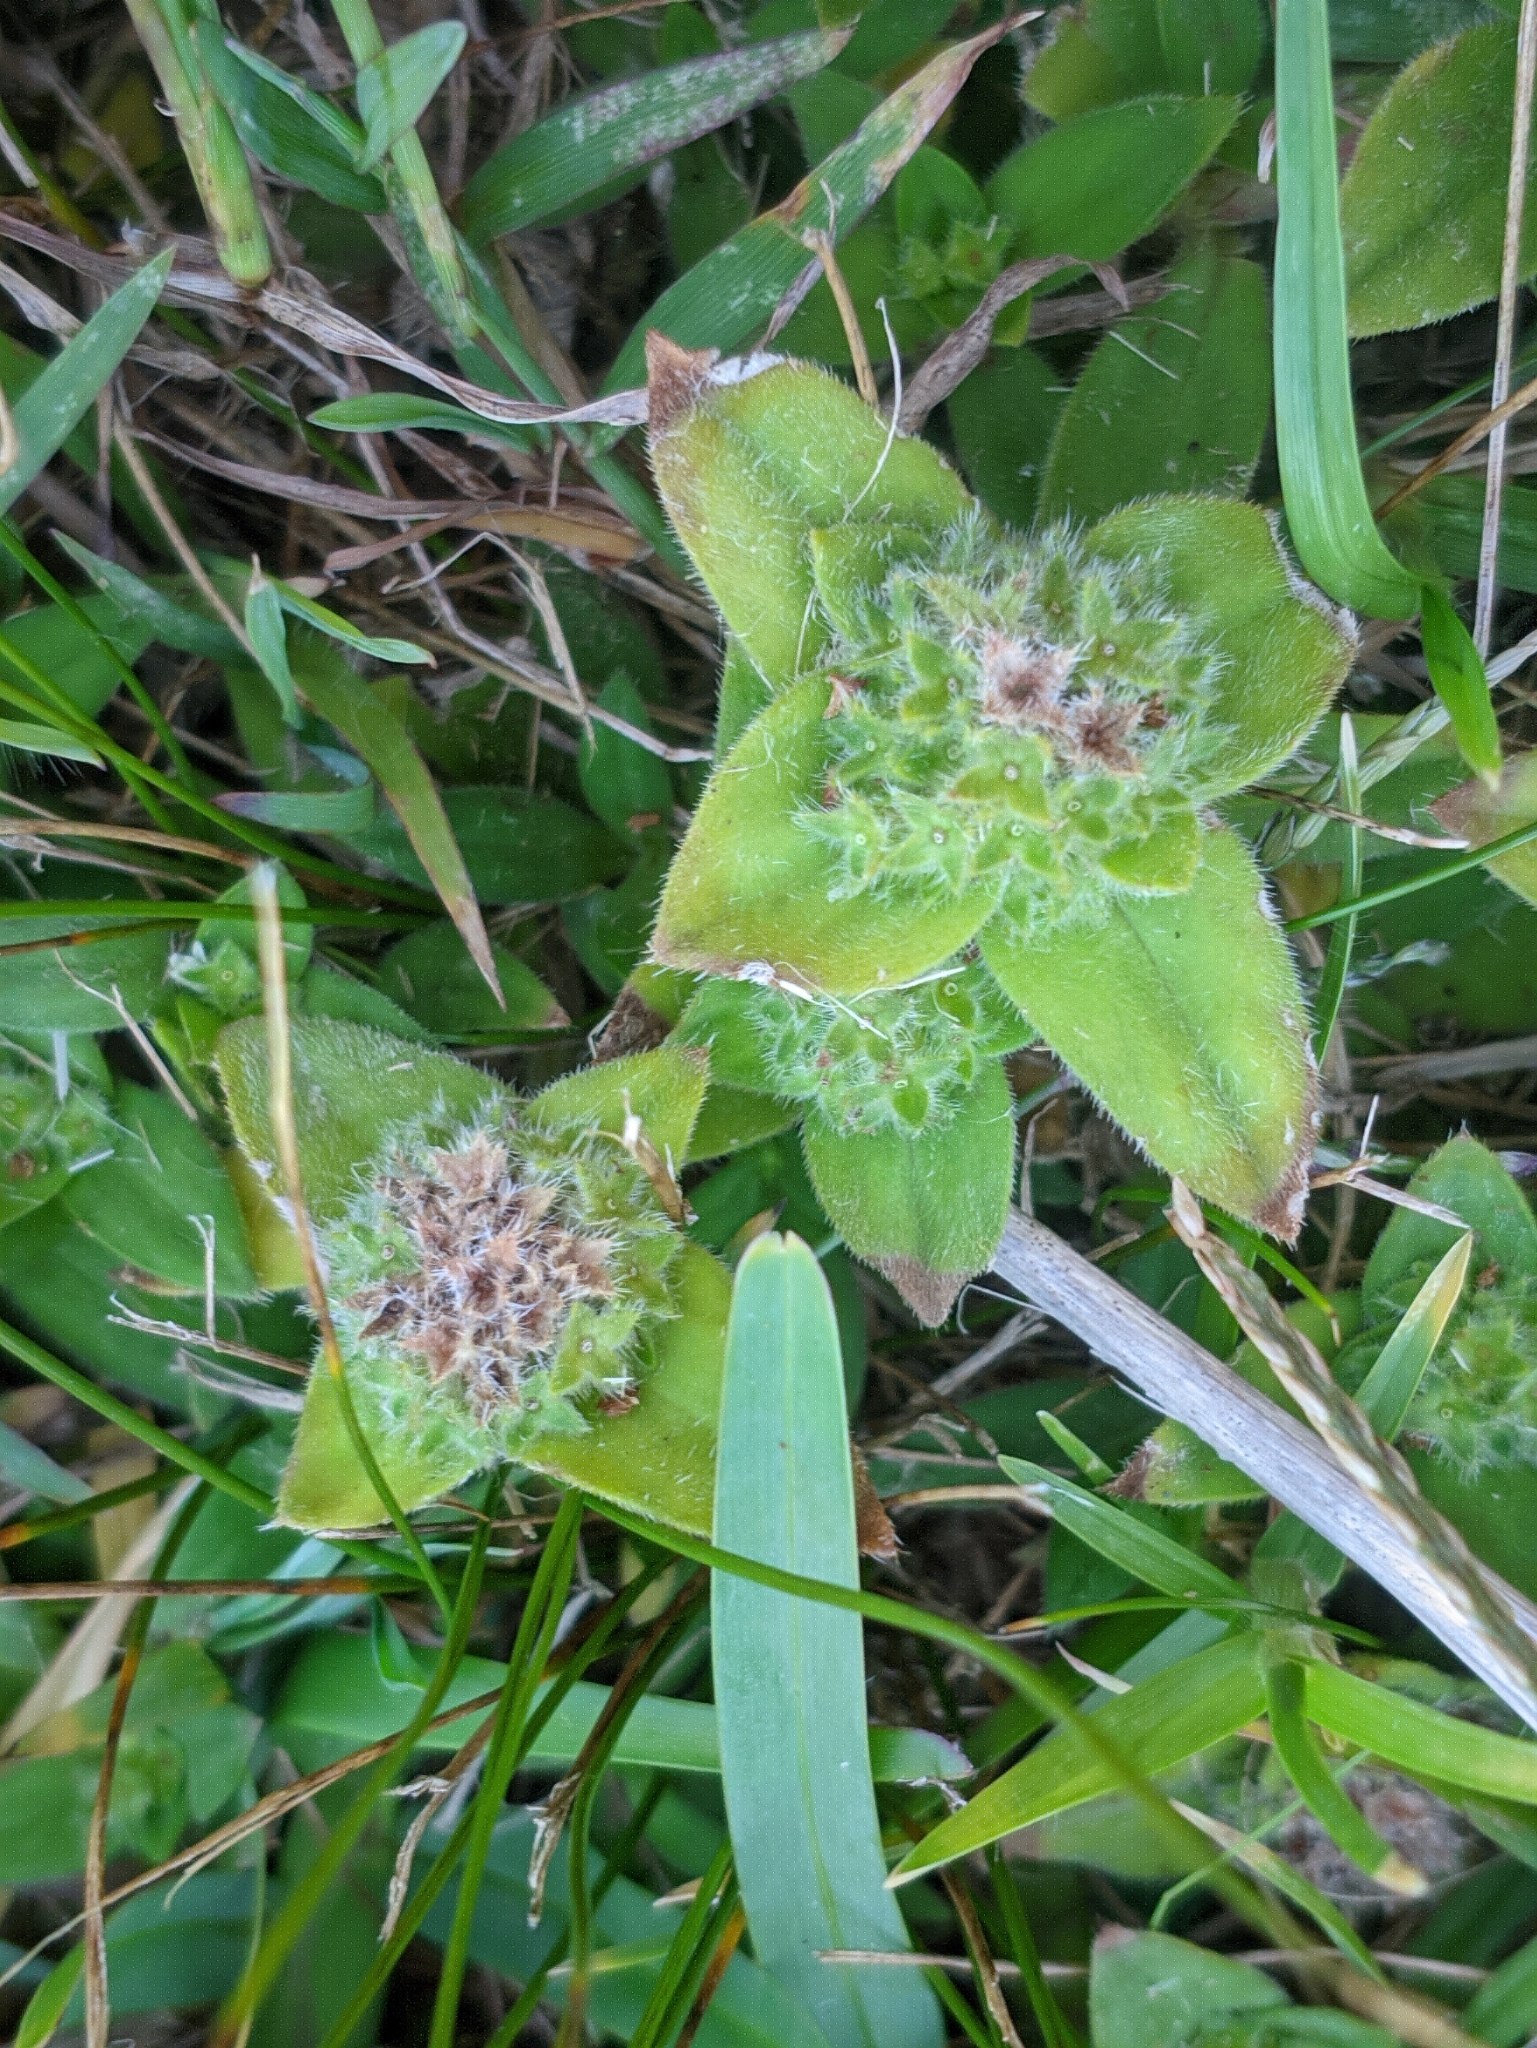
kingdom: Plantae
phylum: Tracheophyta
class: Magnoliopsida
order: Gentianales
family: Rubiaceae
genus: Richardia
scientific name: Richardia humistrata
